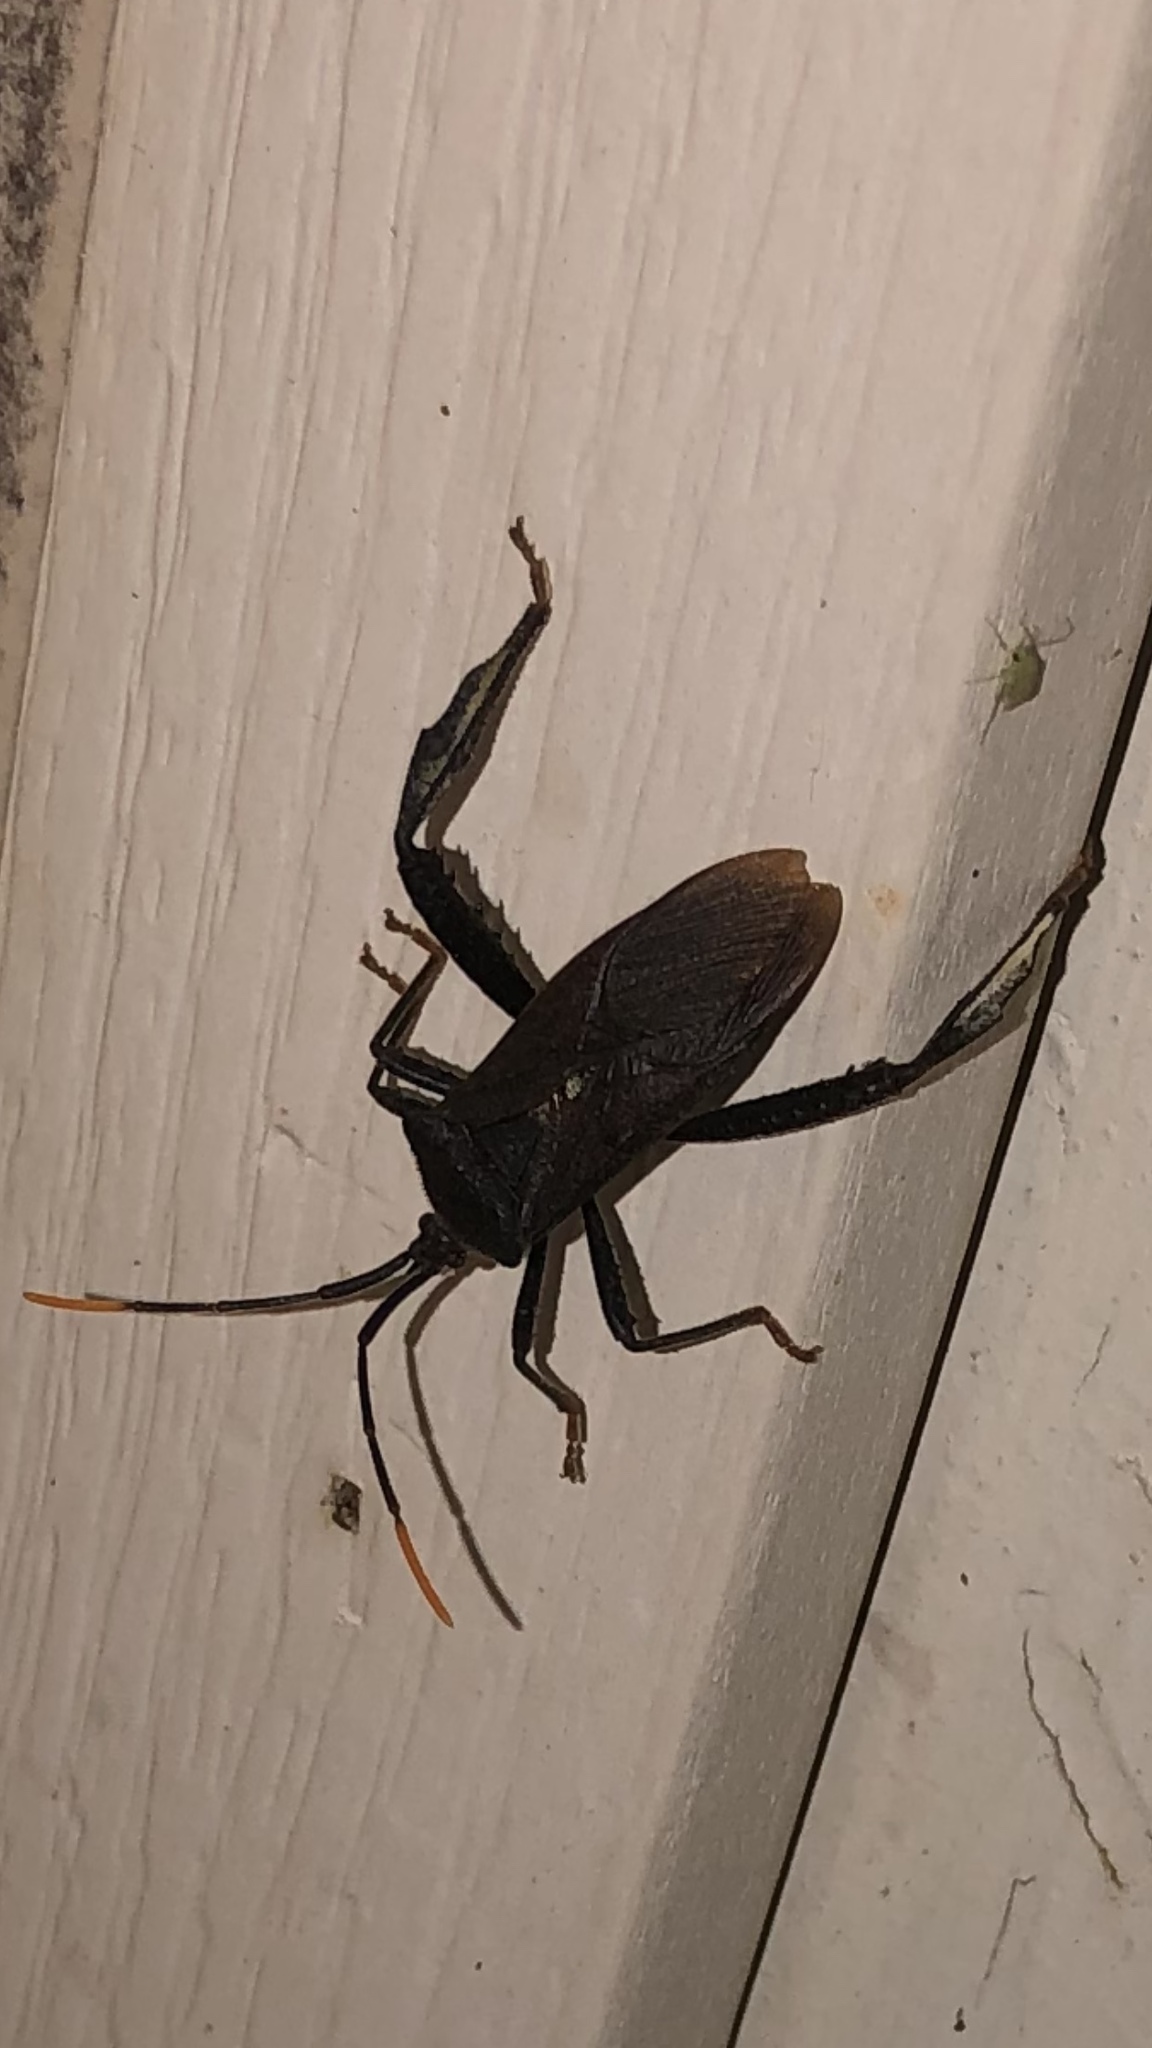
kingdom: Animalia
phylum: Arthropoda
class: Insecta
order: Hemiptera
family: Coreidae
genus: Acanthocephala
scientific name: Acanthocephala terminalis
